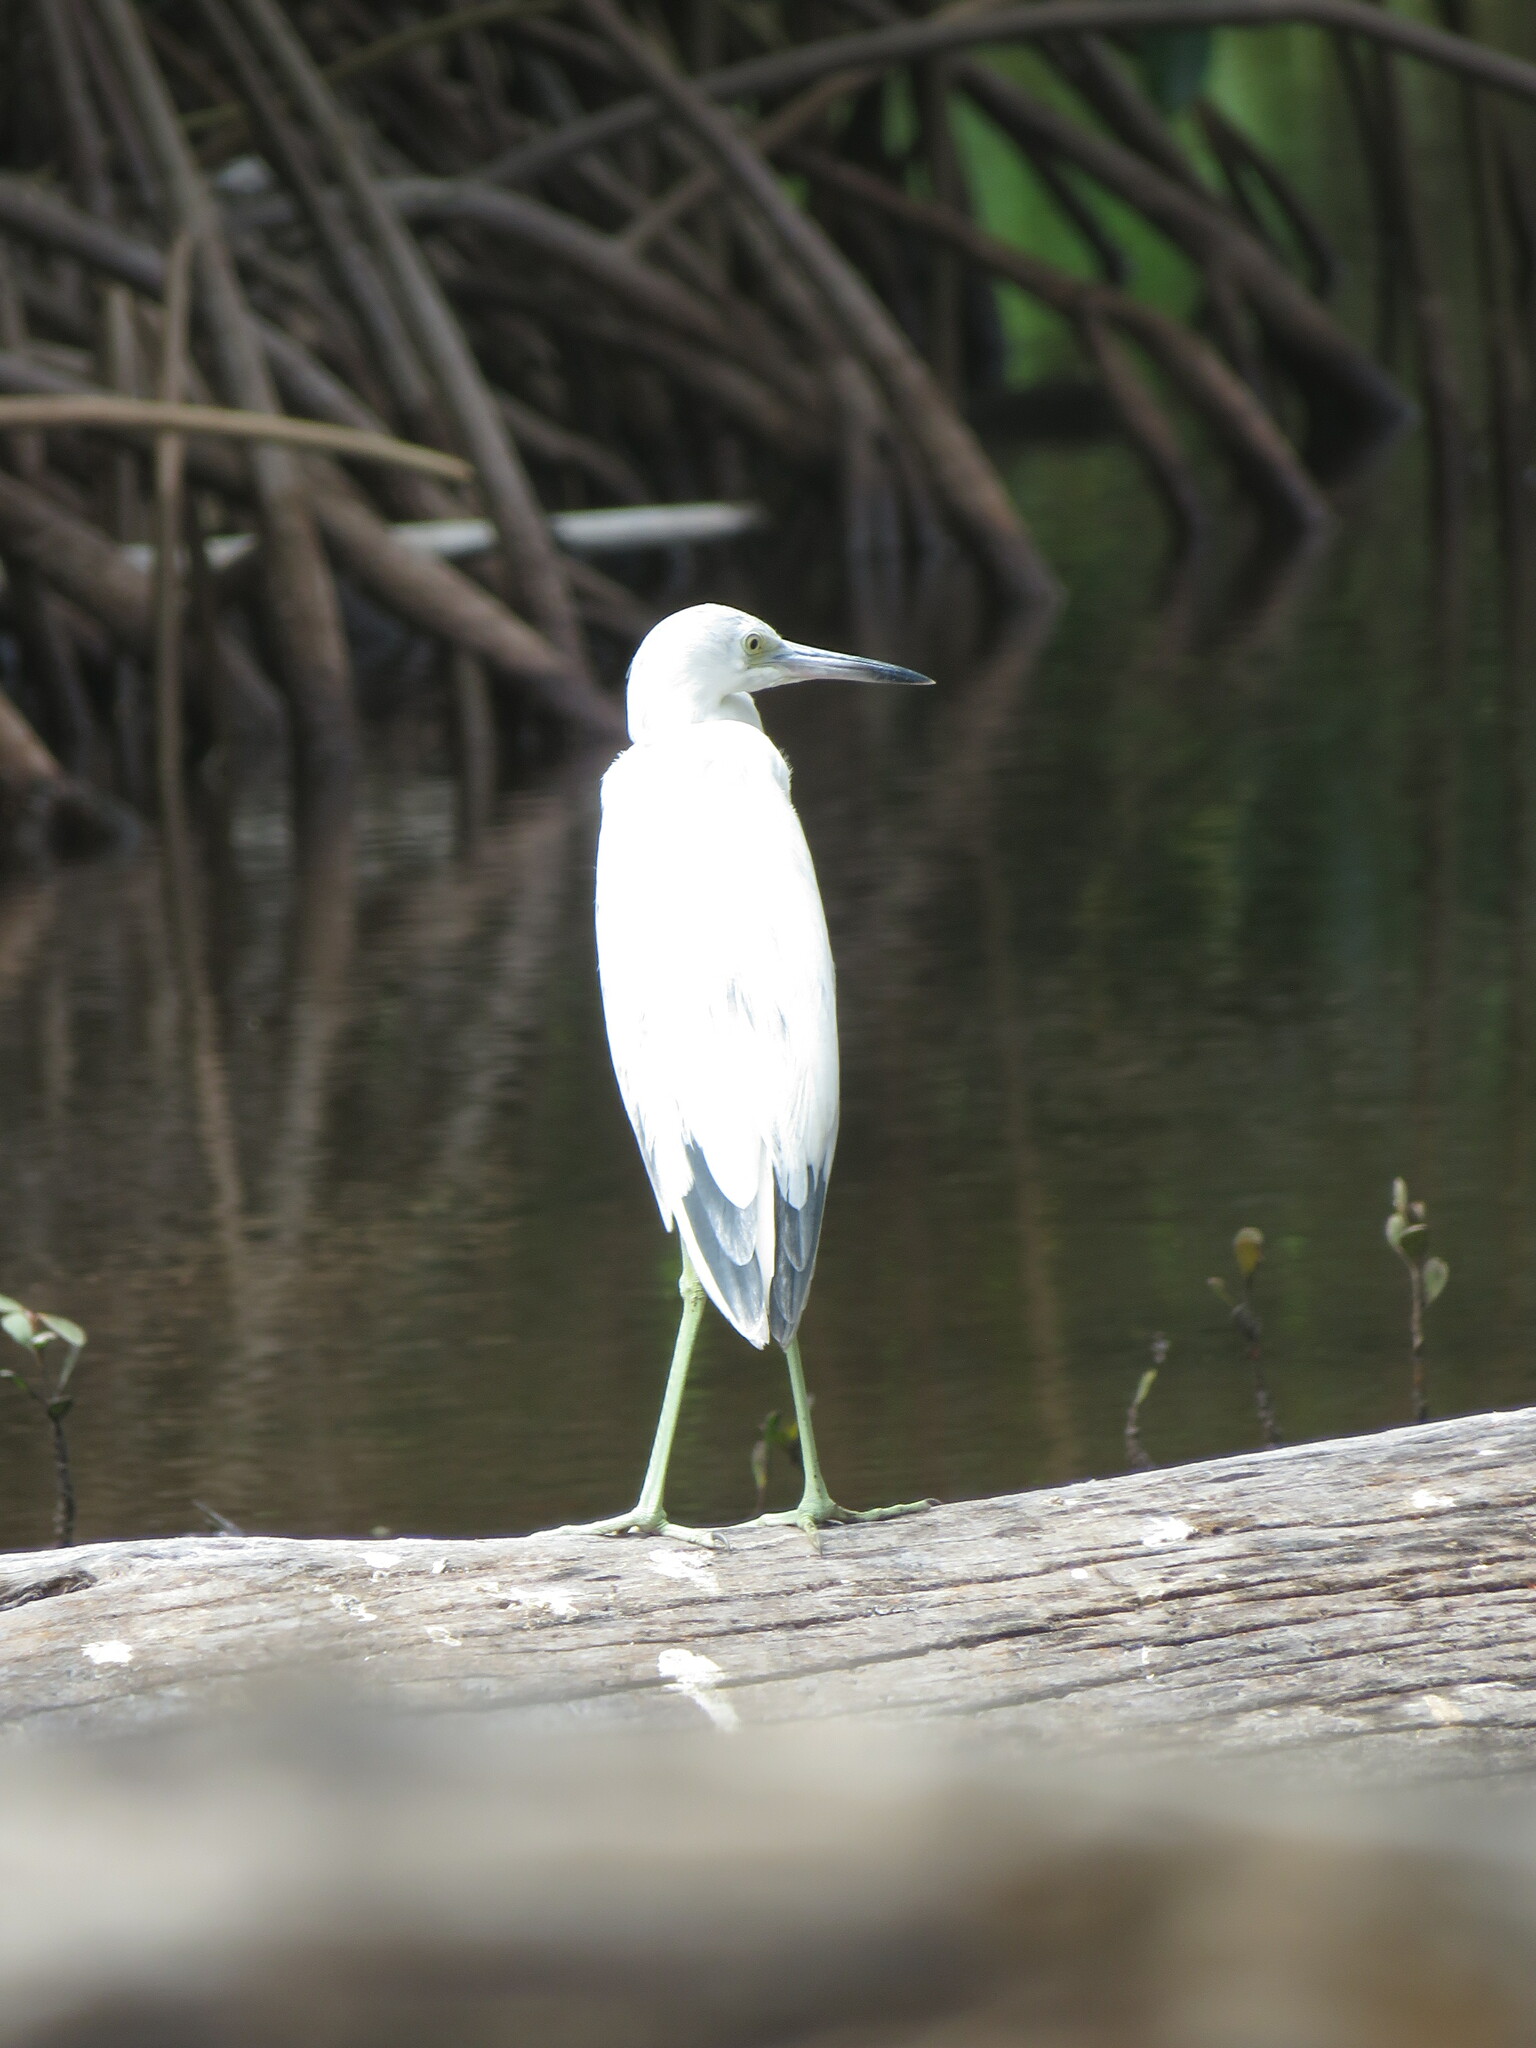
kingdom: Animalia
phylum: Chordata
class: Aves
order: Pelecaniformes
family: Ardeidae
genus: Egretta
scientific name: Egretta caerulea
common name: Little blue heron
